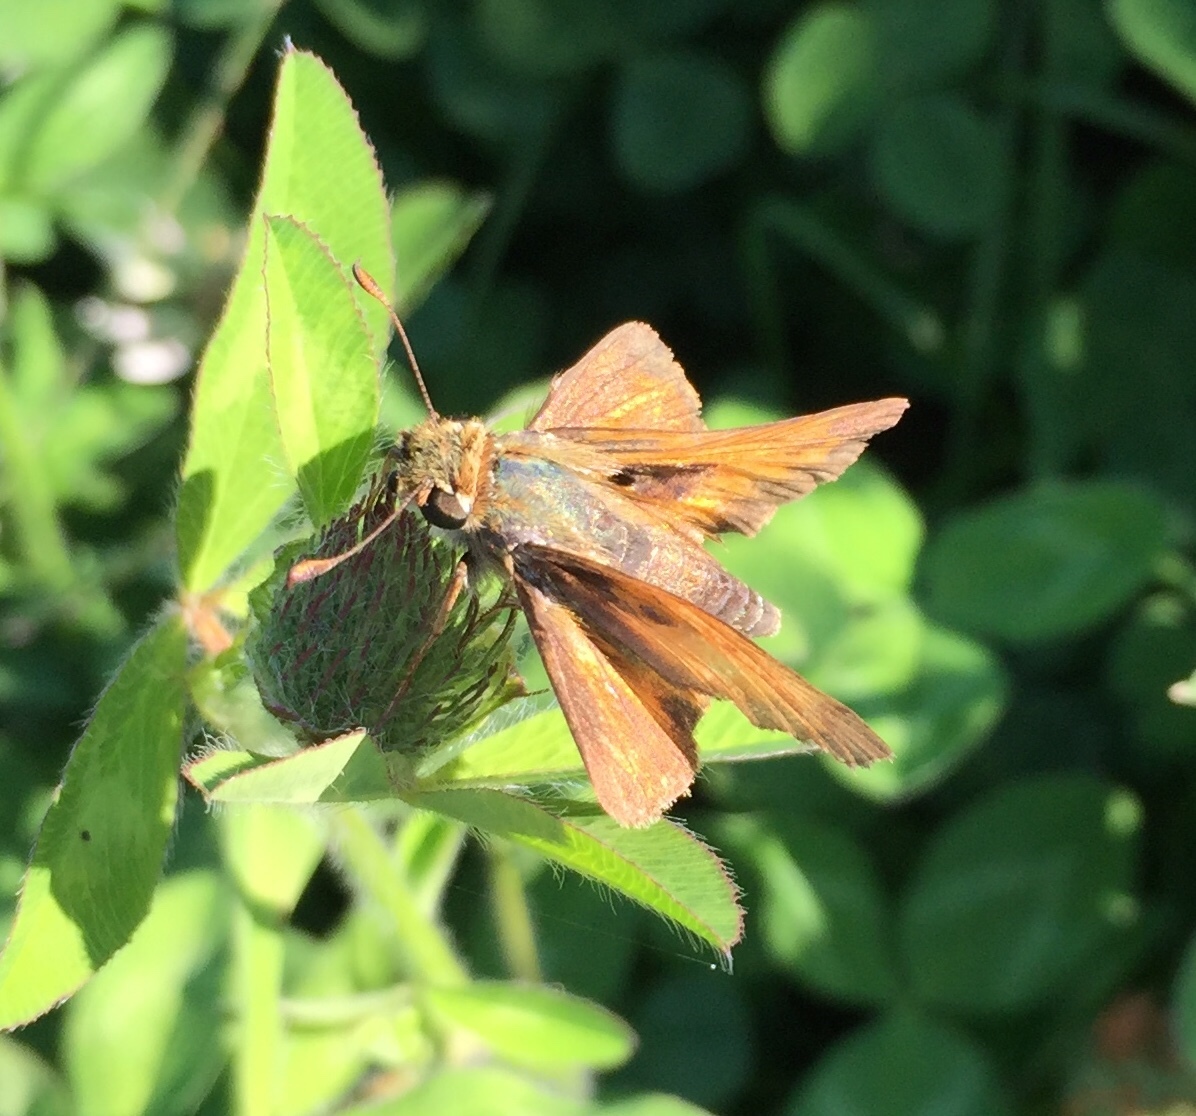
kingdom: Animalia
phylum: Arthropoda
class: Insecta
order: Lepidoptera
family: Hesperiidae
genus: Atalopedes
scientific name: Atalopedes
